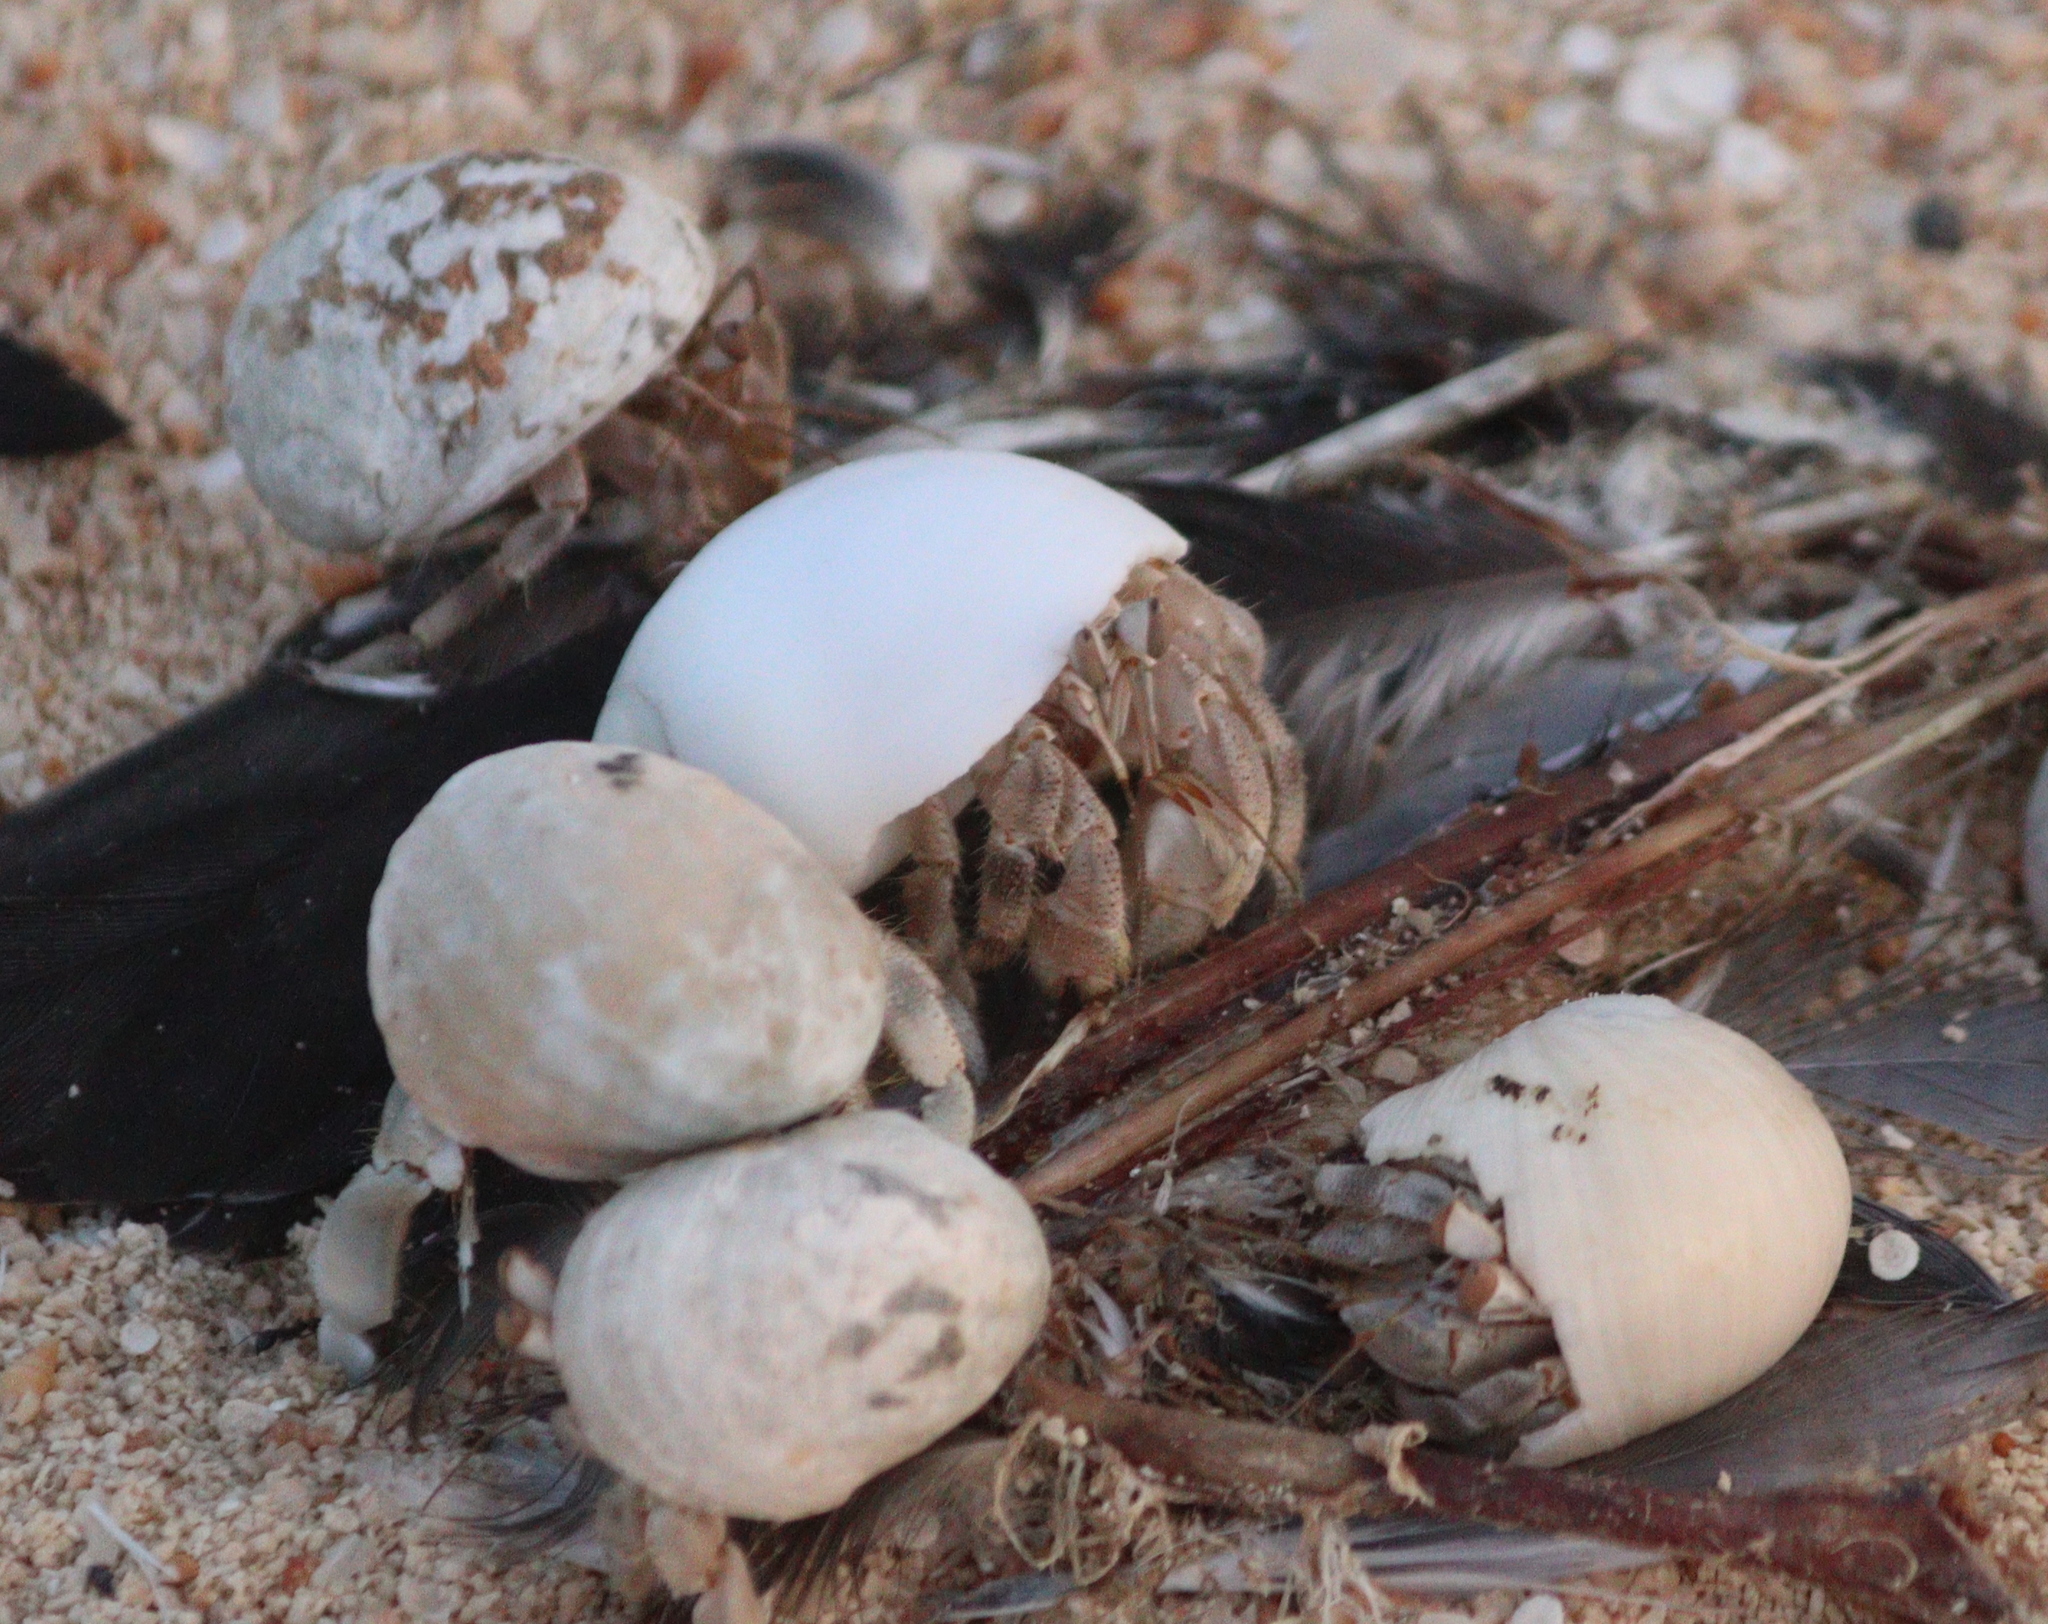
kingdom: Animalia
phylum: Arthropoda
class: Malacostraca
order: Decapoda
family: Coenobitidae
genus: Coenobita
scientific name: Coenobita scaevola
